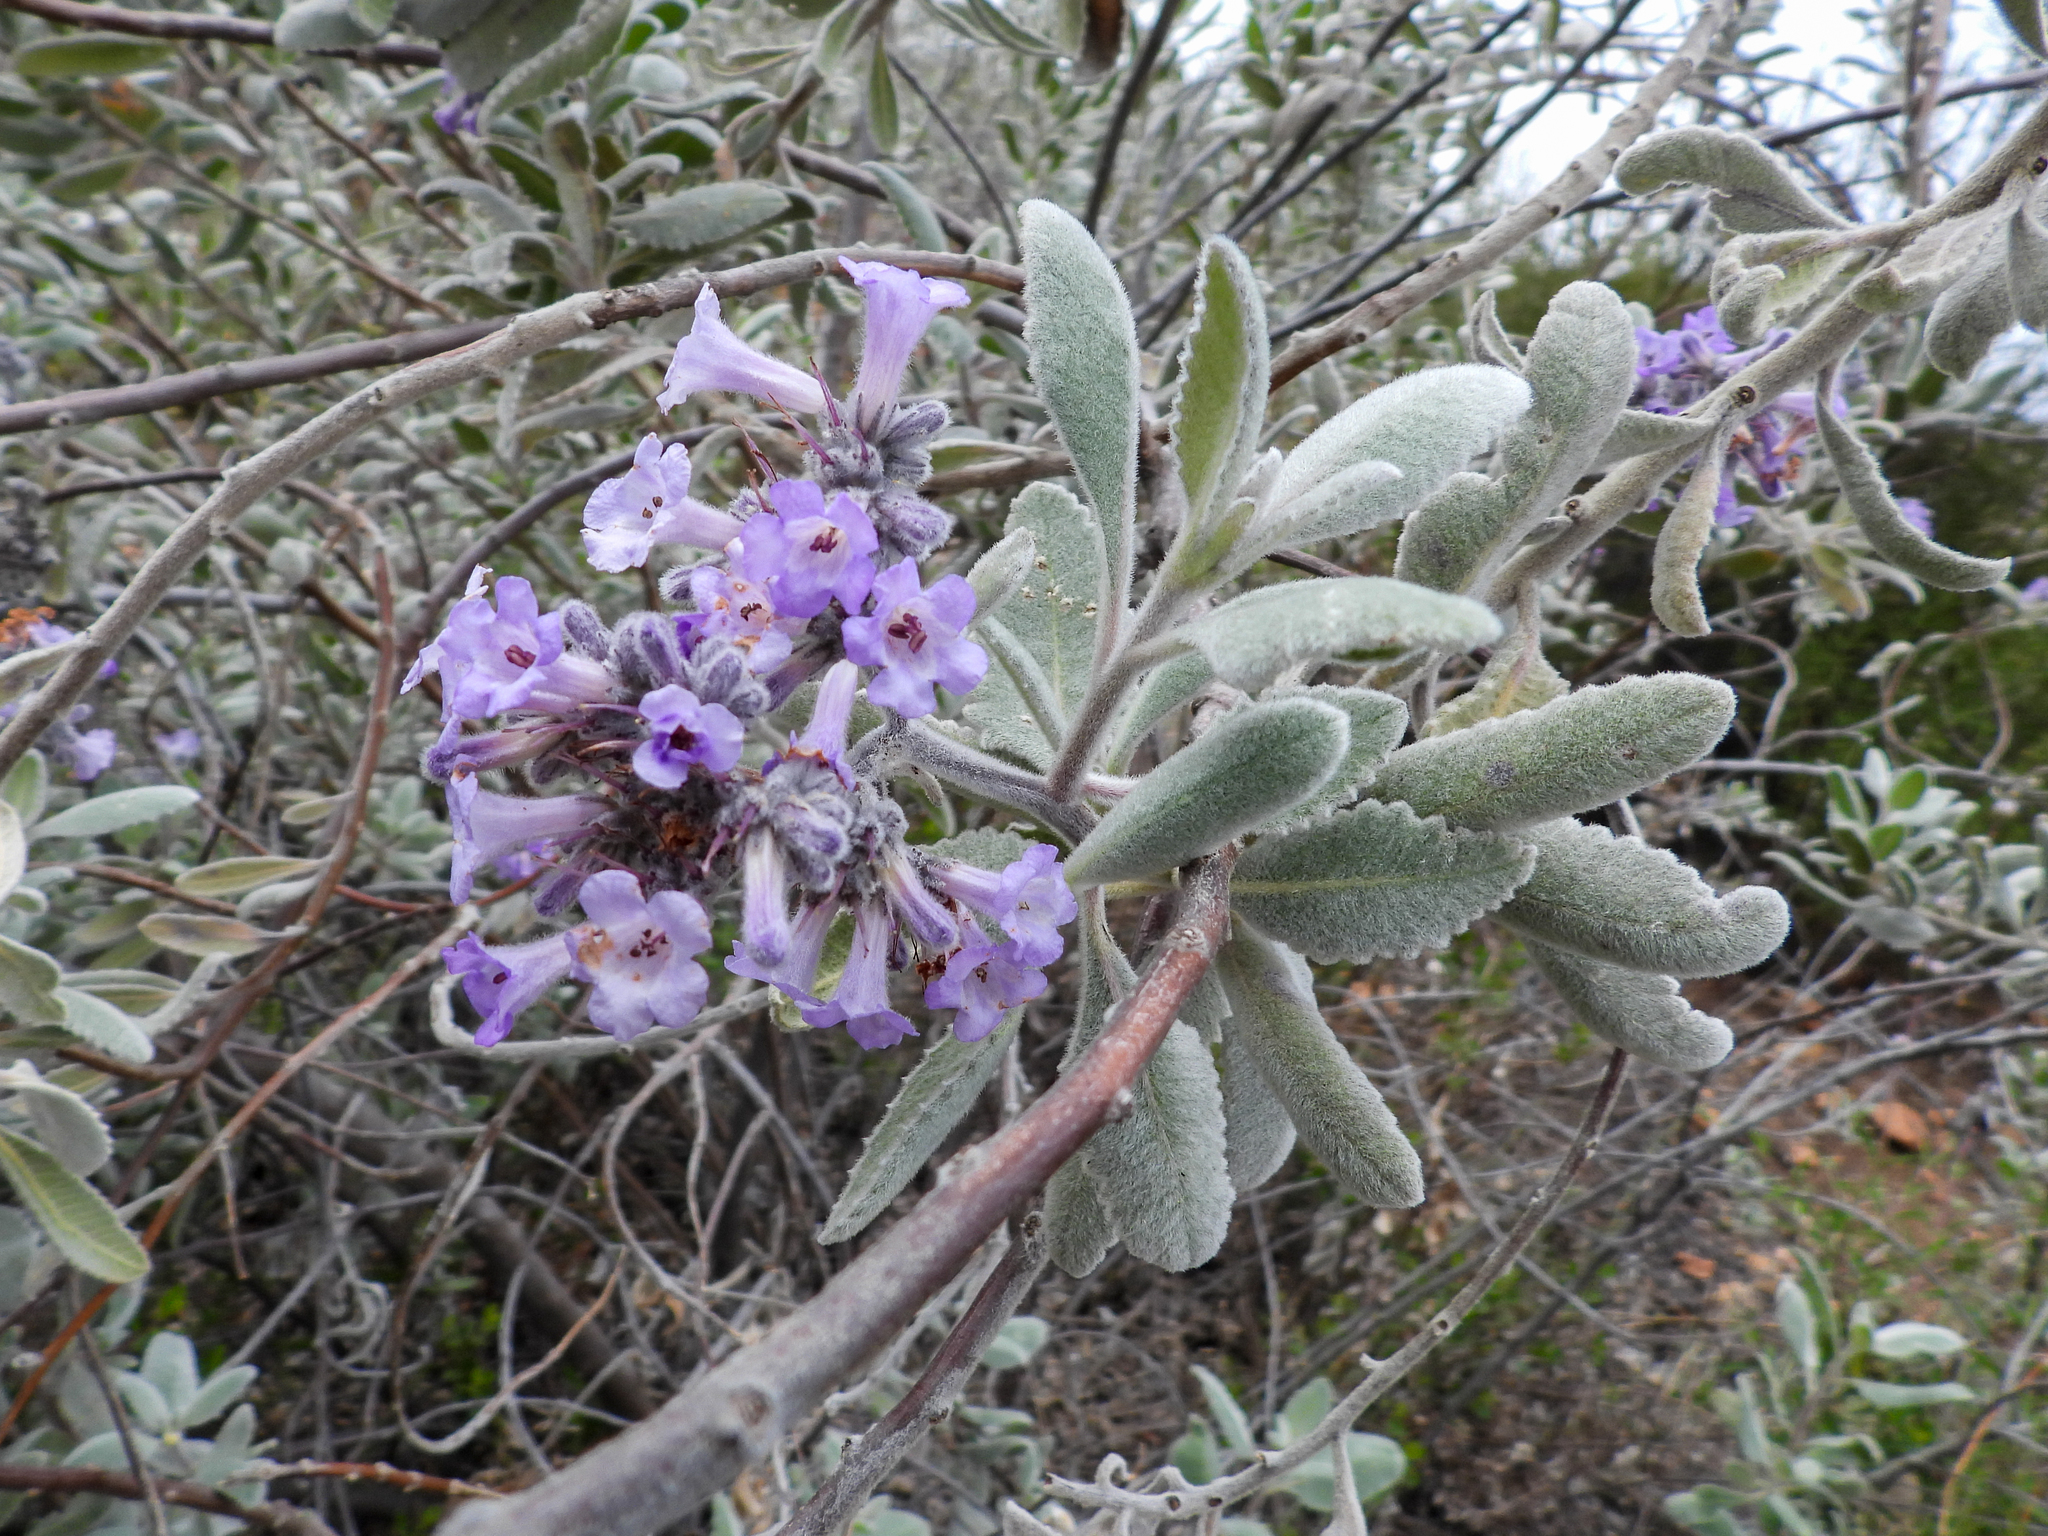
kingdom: Plantae
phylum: Tracheophyta
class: Magnoliopsida
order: Boraginales
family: Namaceae
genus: Eriodictyon
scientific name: Eriodictyon crassifolium
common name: Thick-leaf yerba-santa
